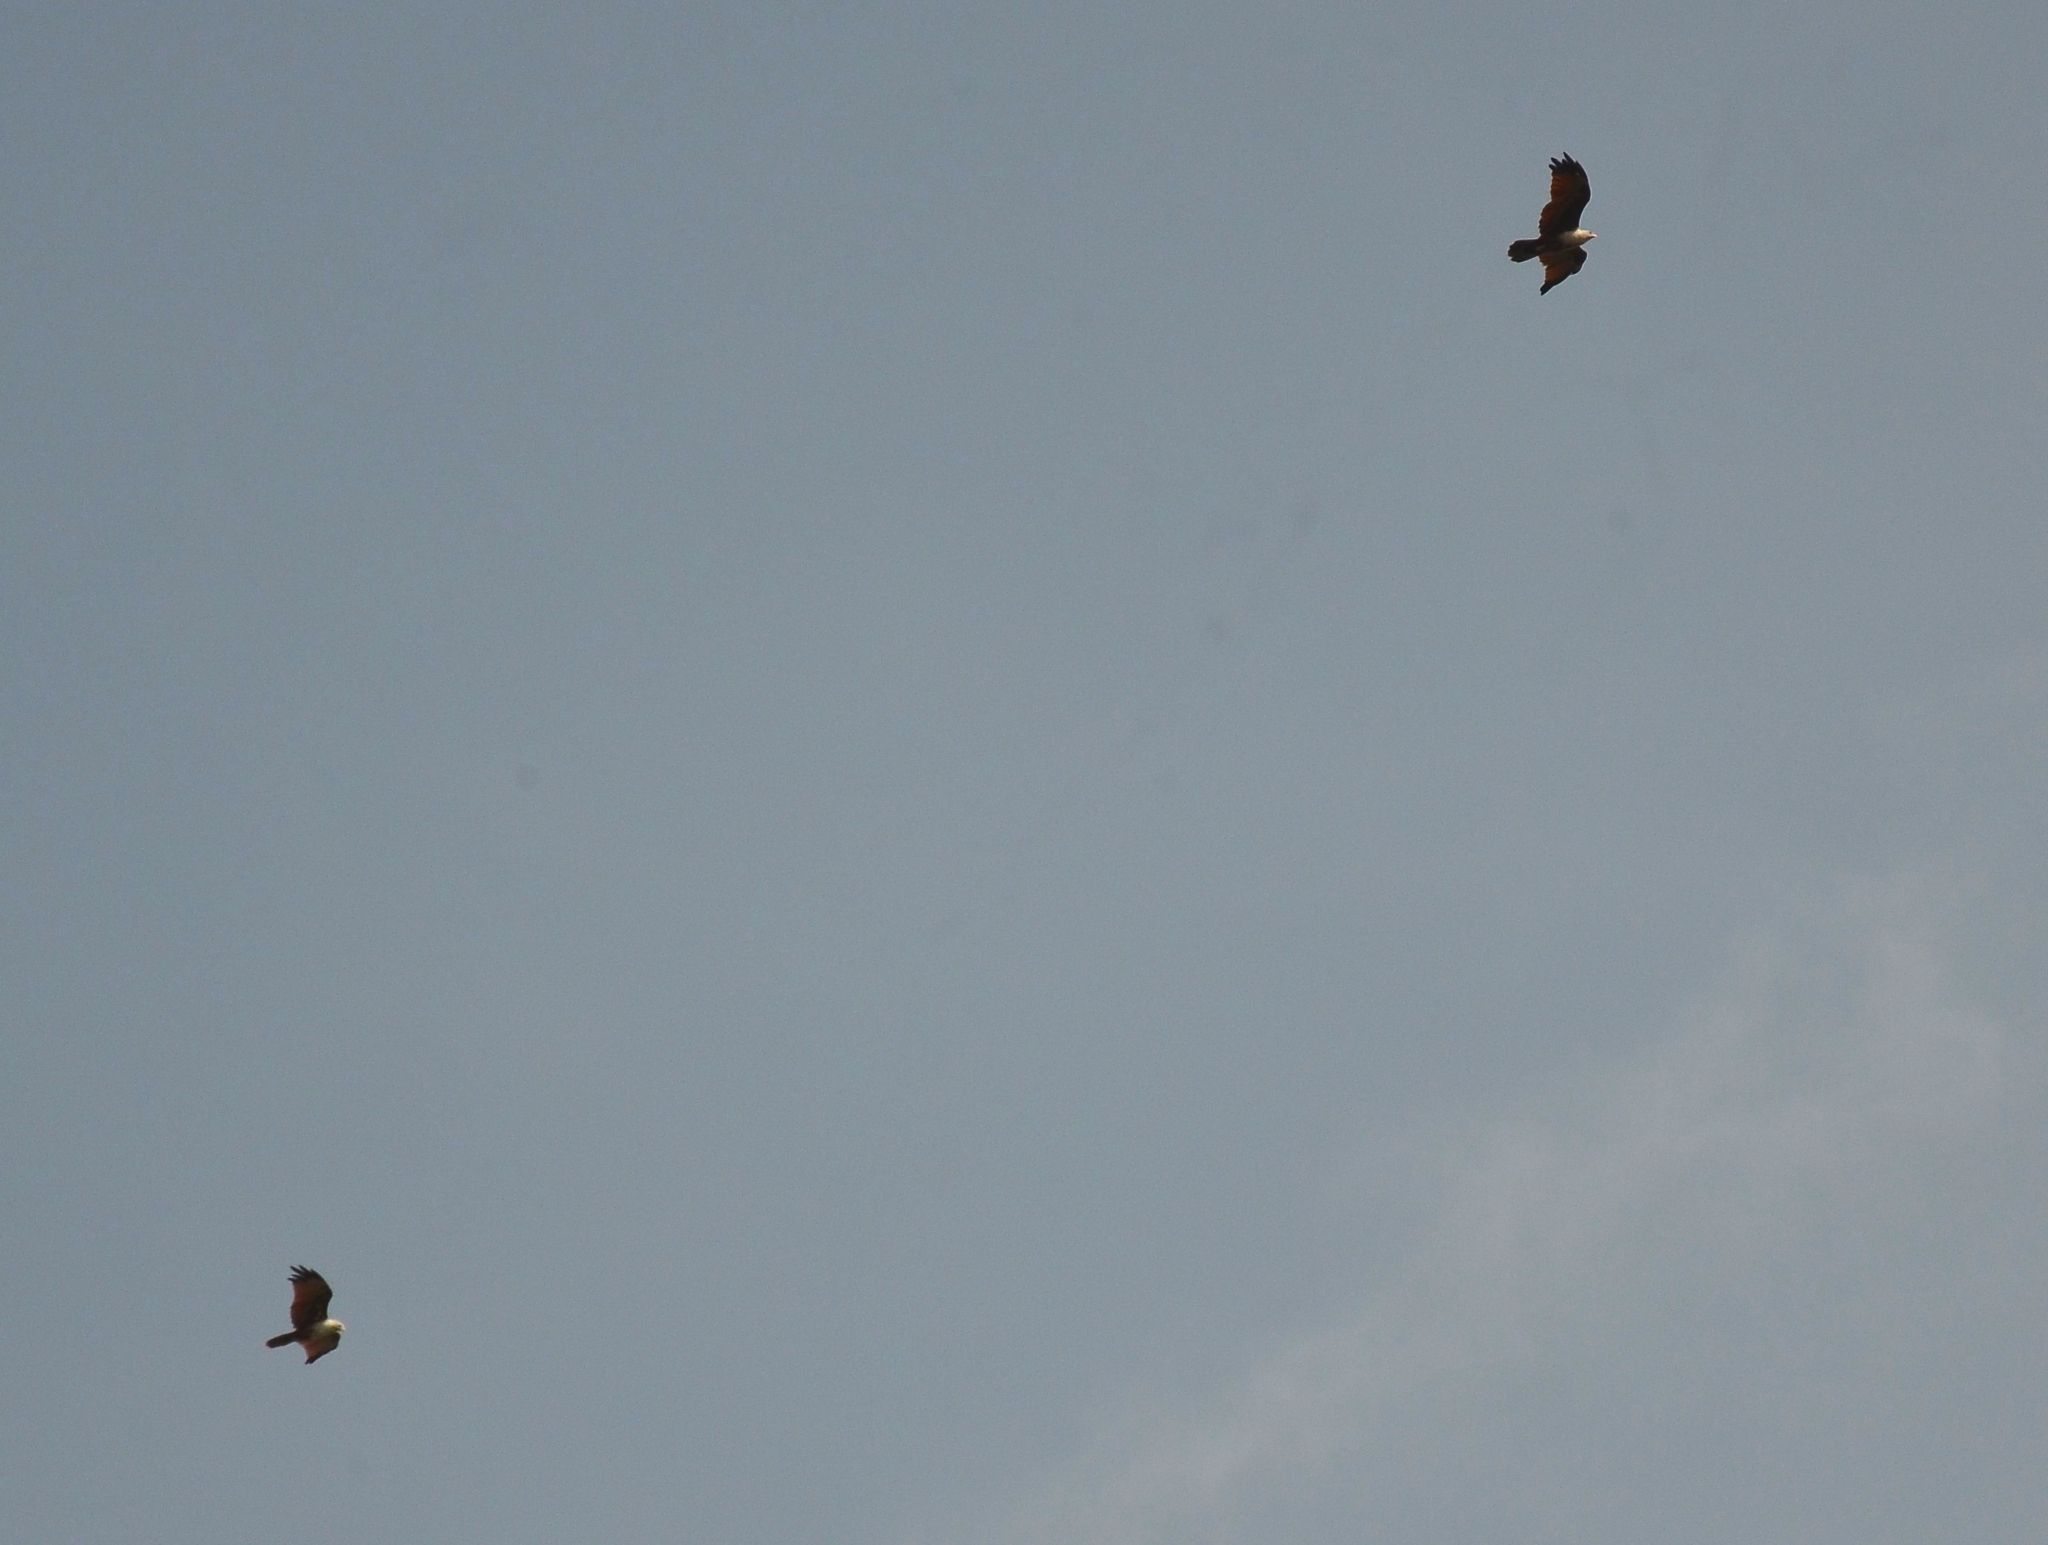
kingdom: Animalia
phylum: Chordata
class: Aves
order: Accipitriformes
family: Accipitridae
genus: Haliastur
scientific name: Haliastur indus
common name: Brahminy kite
